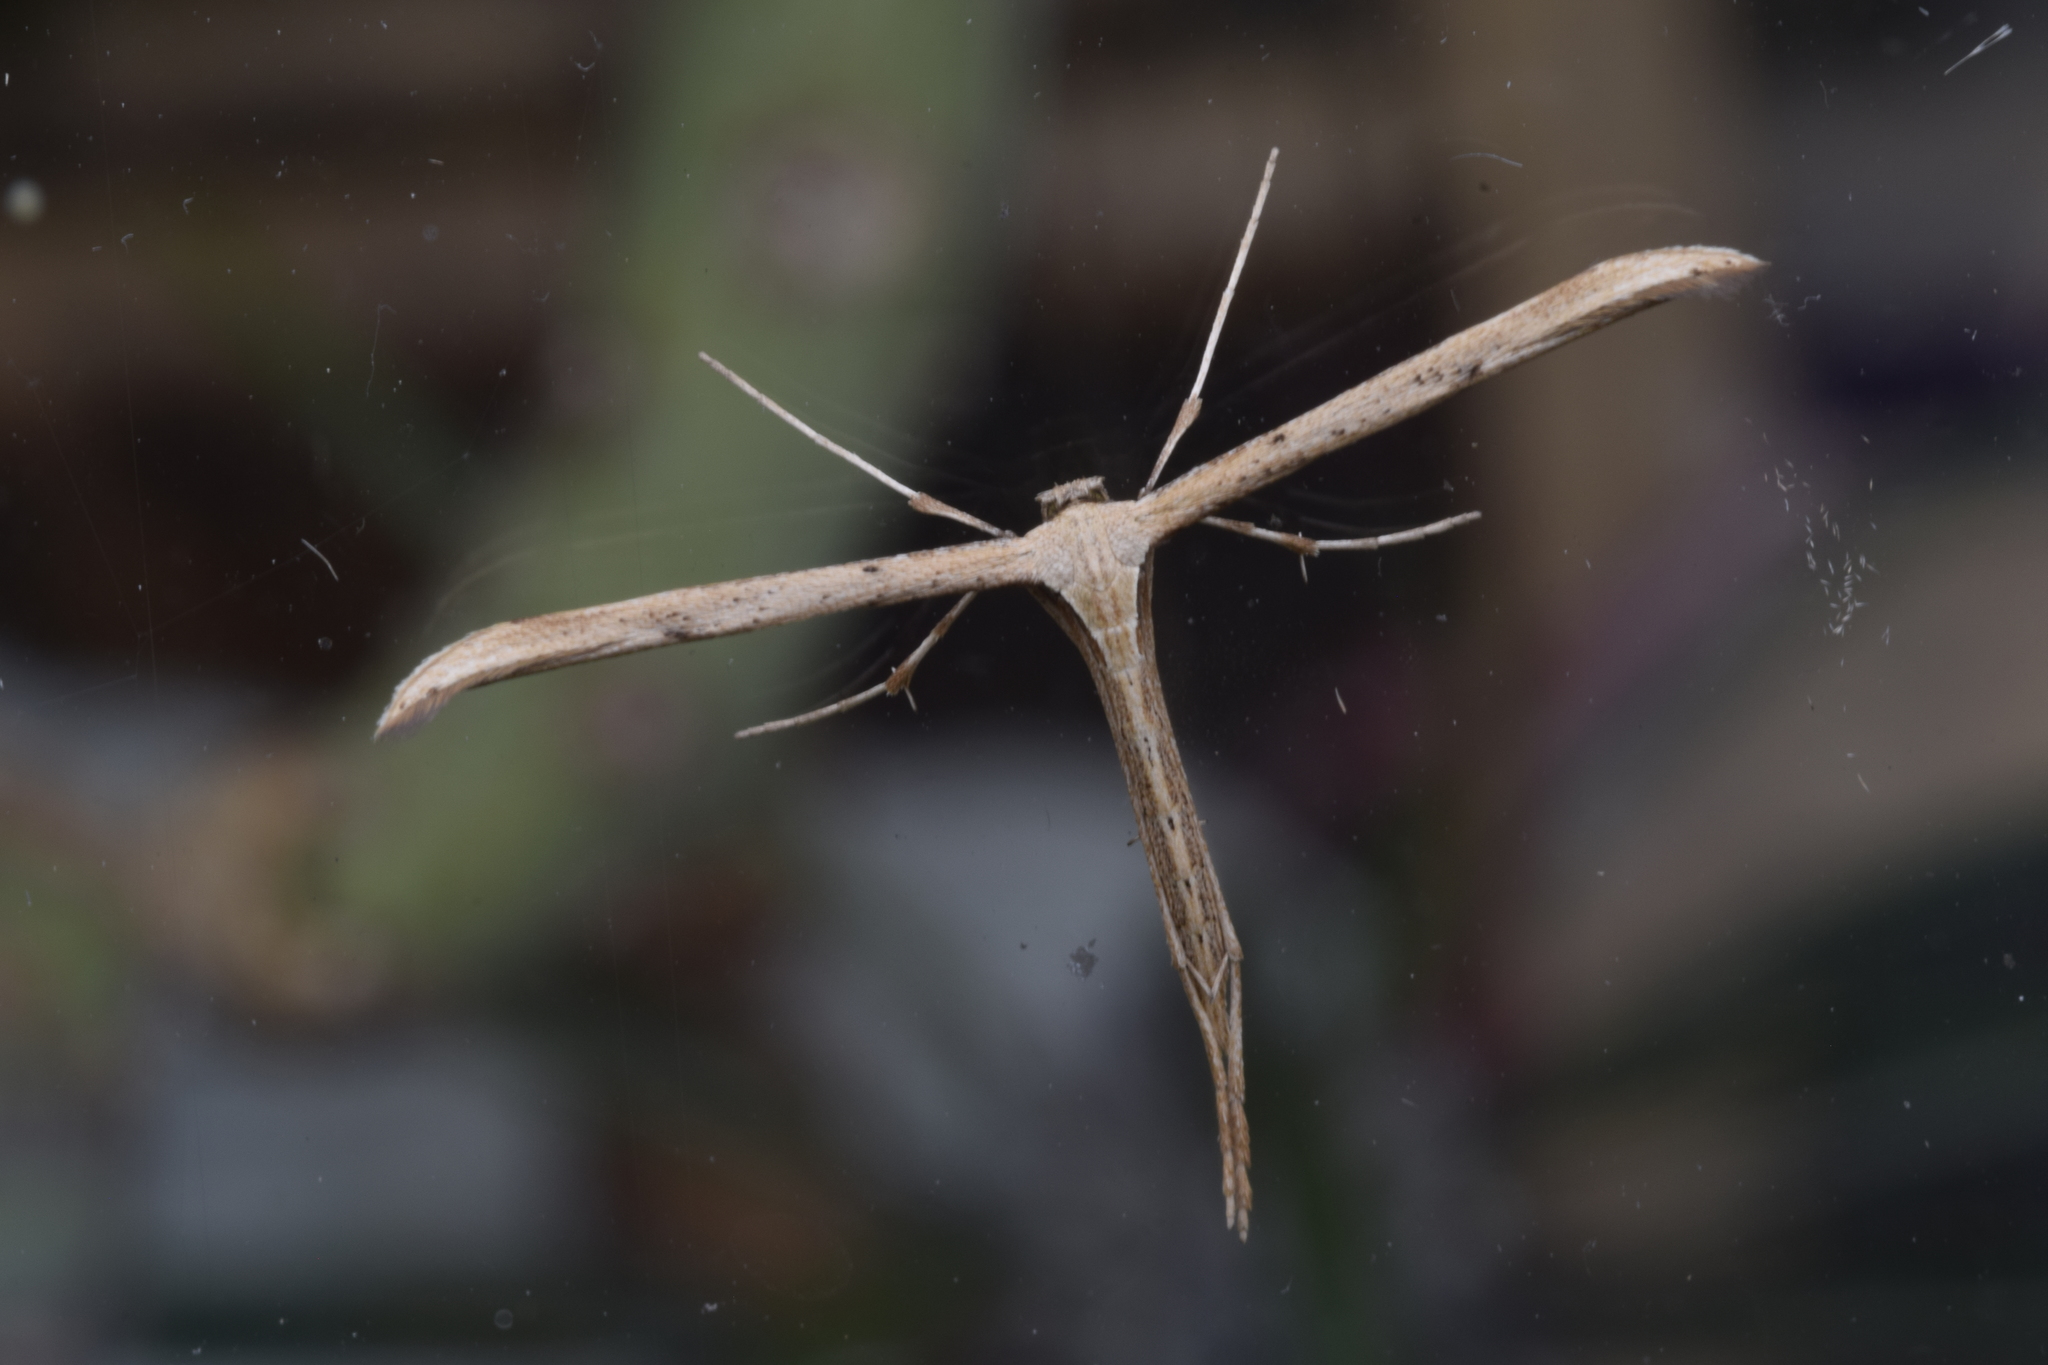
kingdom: Animalia
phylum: Arthropoda
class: Insecta
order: Lepidoptera
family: Pterophoridae
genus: Emmelina
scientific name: Emmelina monodactyla
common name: Common plume
